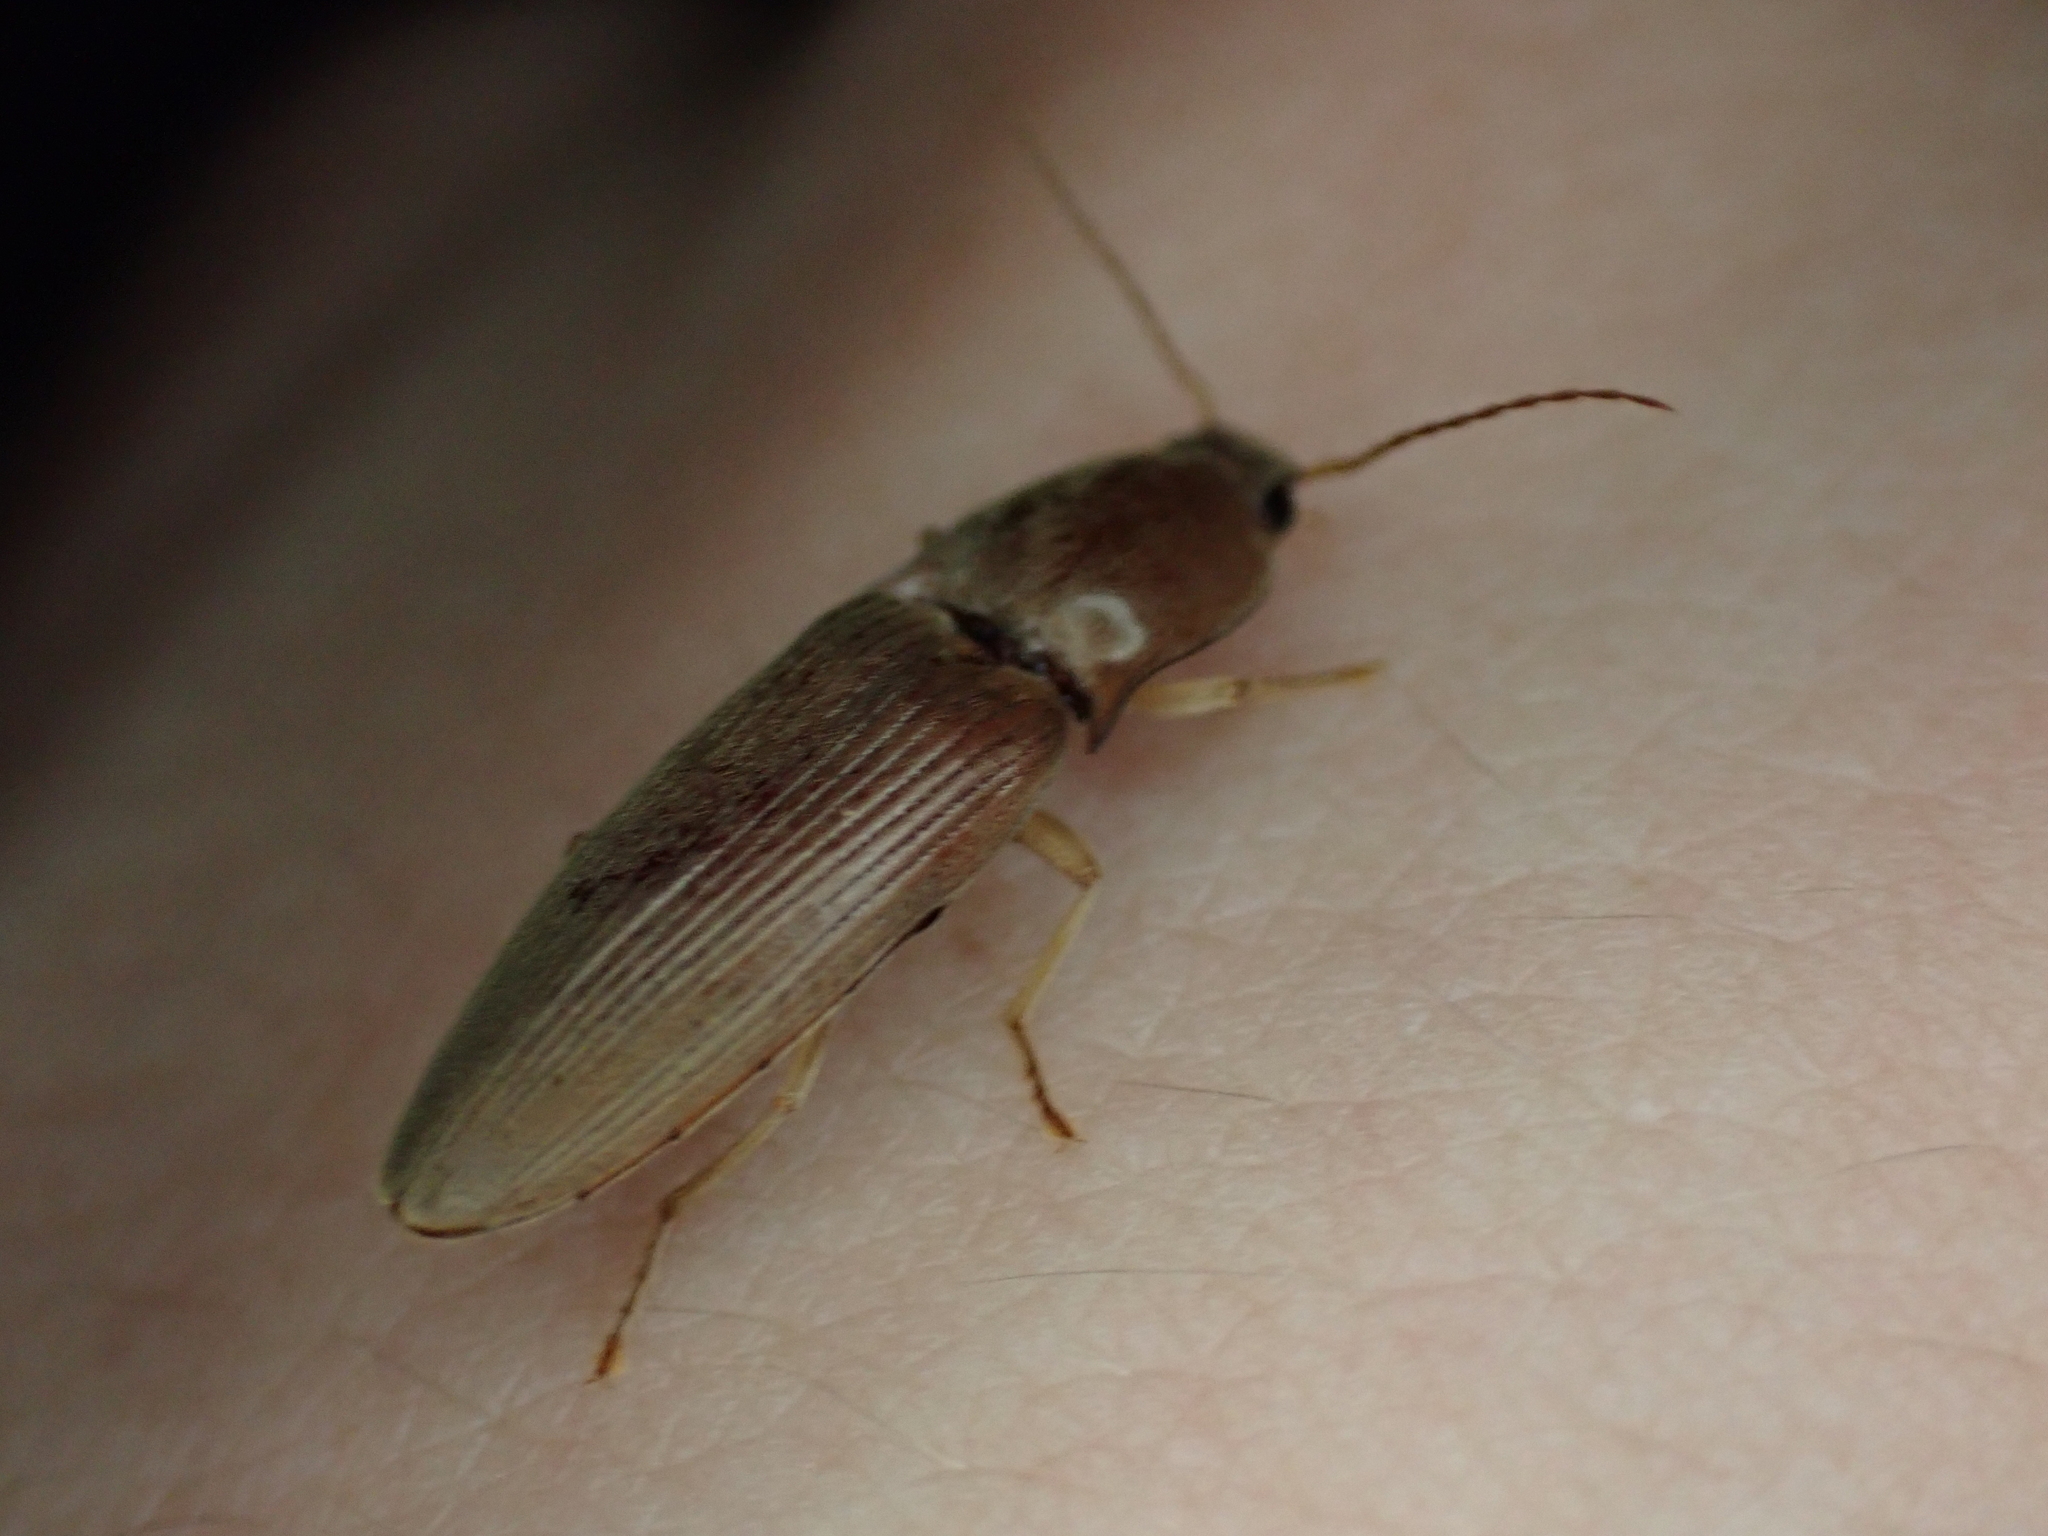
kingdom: Animalia
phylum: Arthropoda
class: Insecta
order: Coleoptera
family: Elateridae
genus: Monocrepidius
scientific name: Monocrepidius lividus
